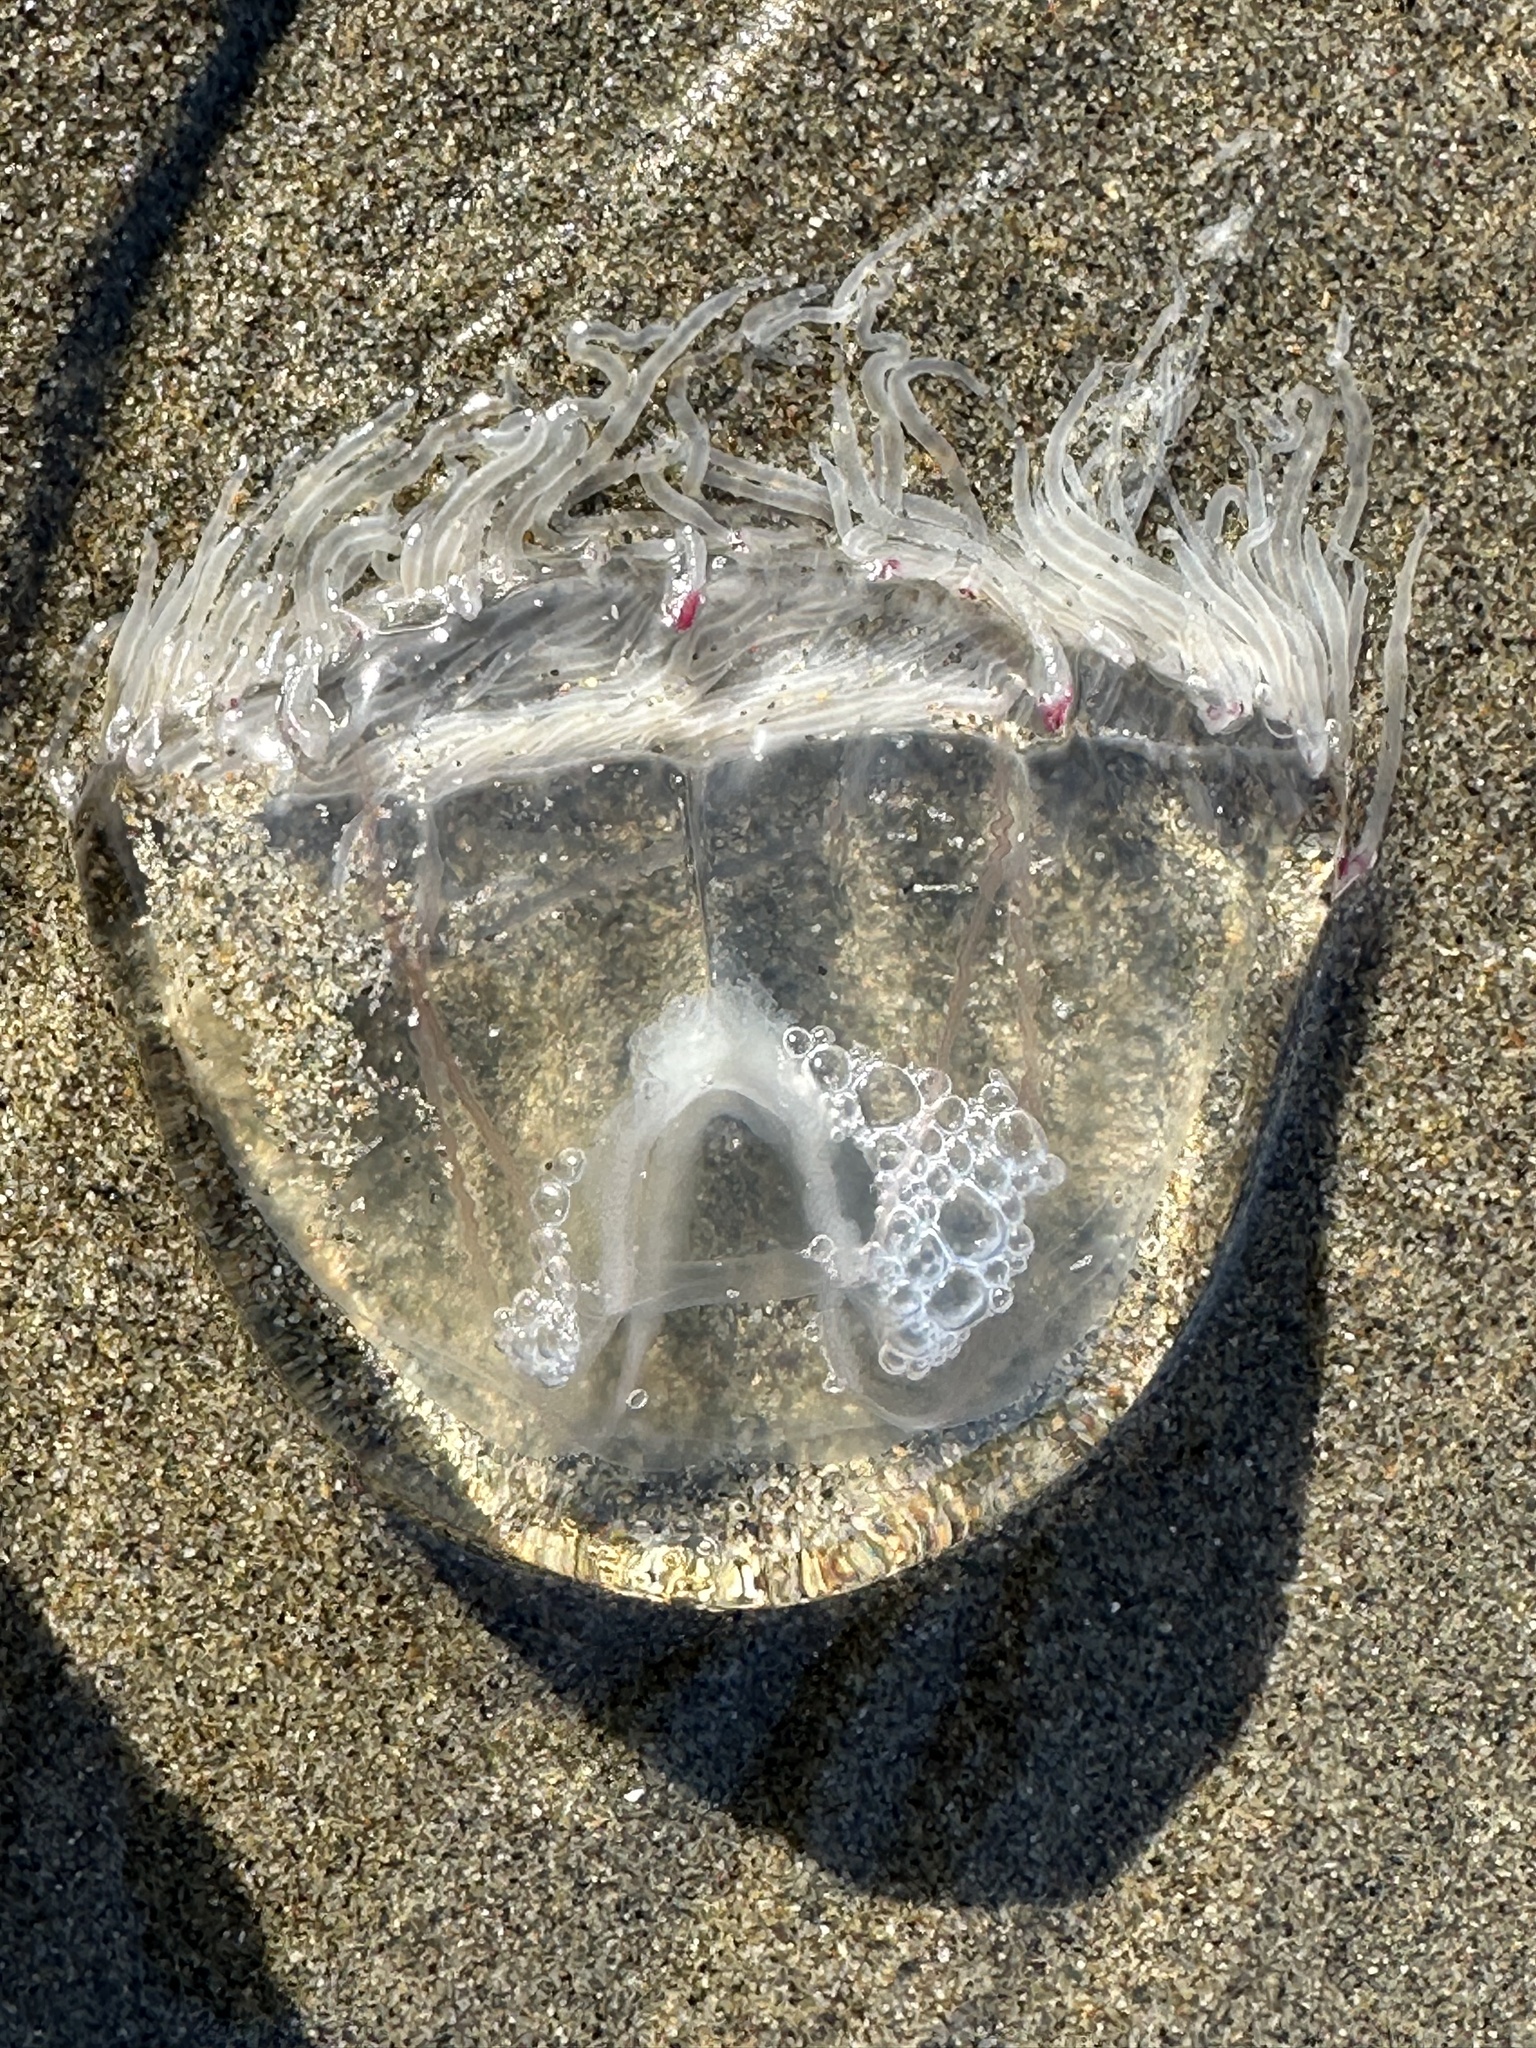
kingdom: Animalia
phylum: Cnidaria
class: Hydrozoa
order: Anthoathecata
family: Corynidae
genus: Scrippsia
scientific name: Scrippsia pacifica
